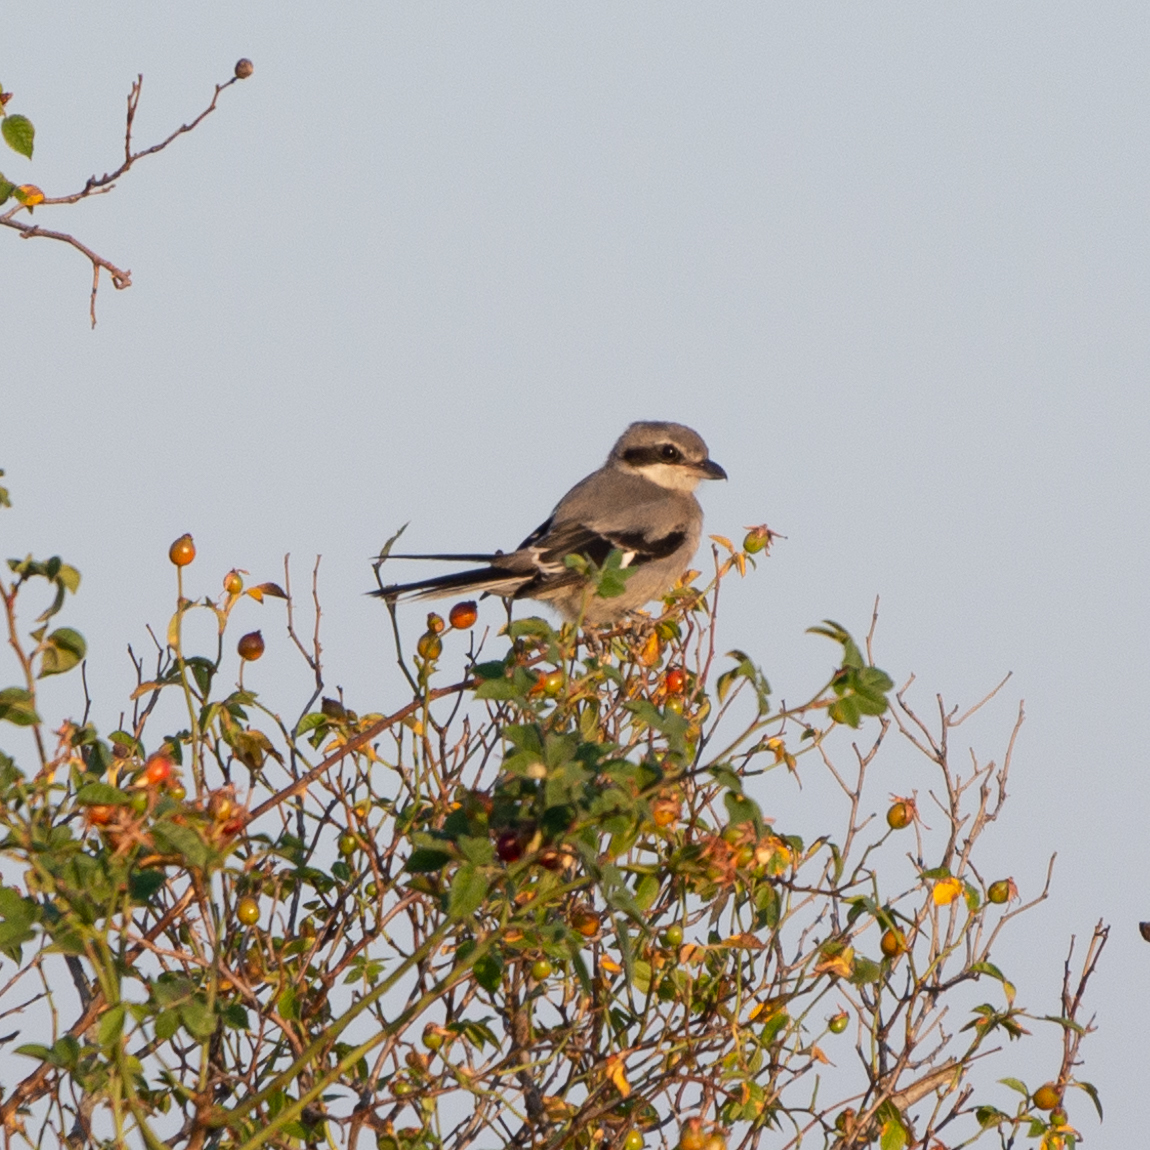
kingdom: Animalia
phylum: Chordata
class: Aves
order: Passeriformes
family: Laniidae
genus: Lanius
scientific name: Lanius meridionalis
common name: Iberian grey shrike
